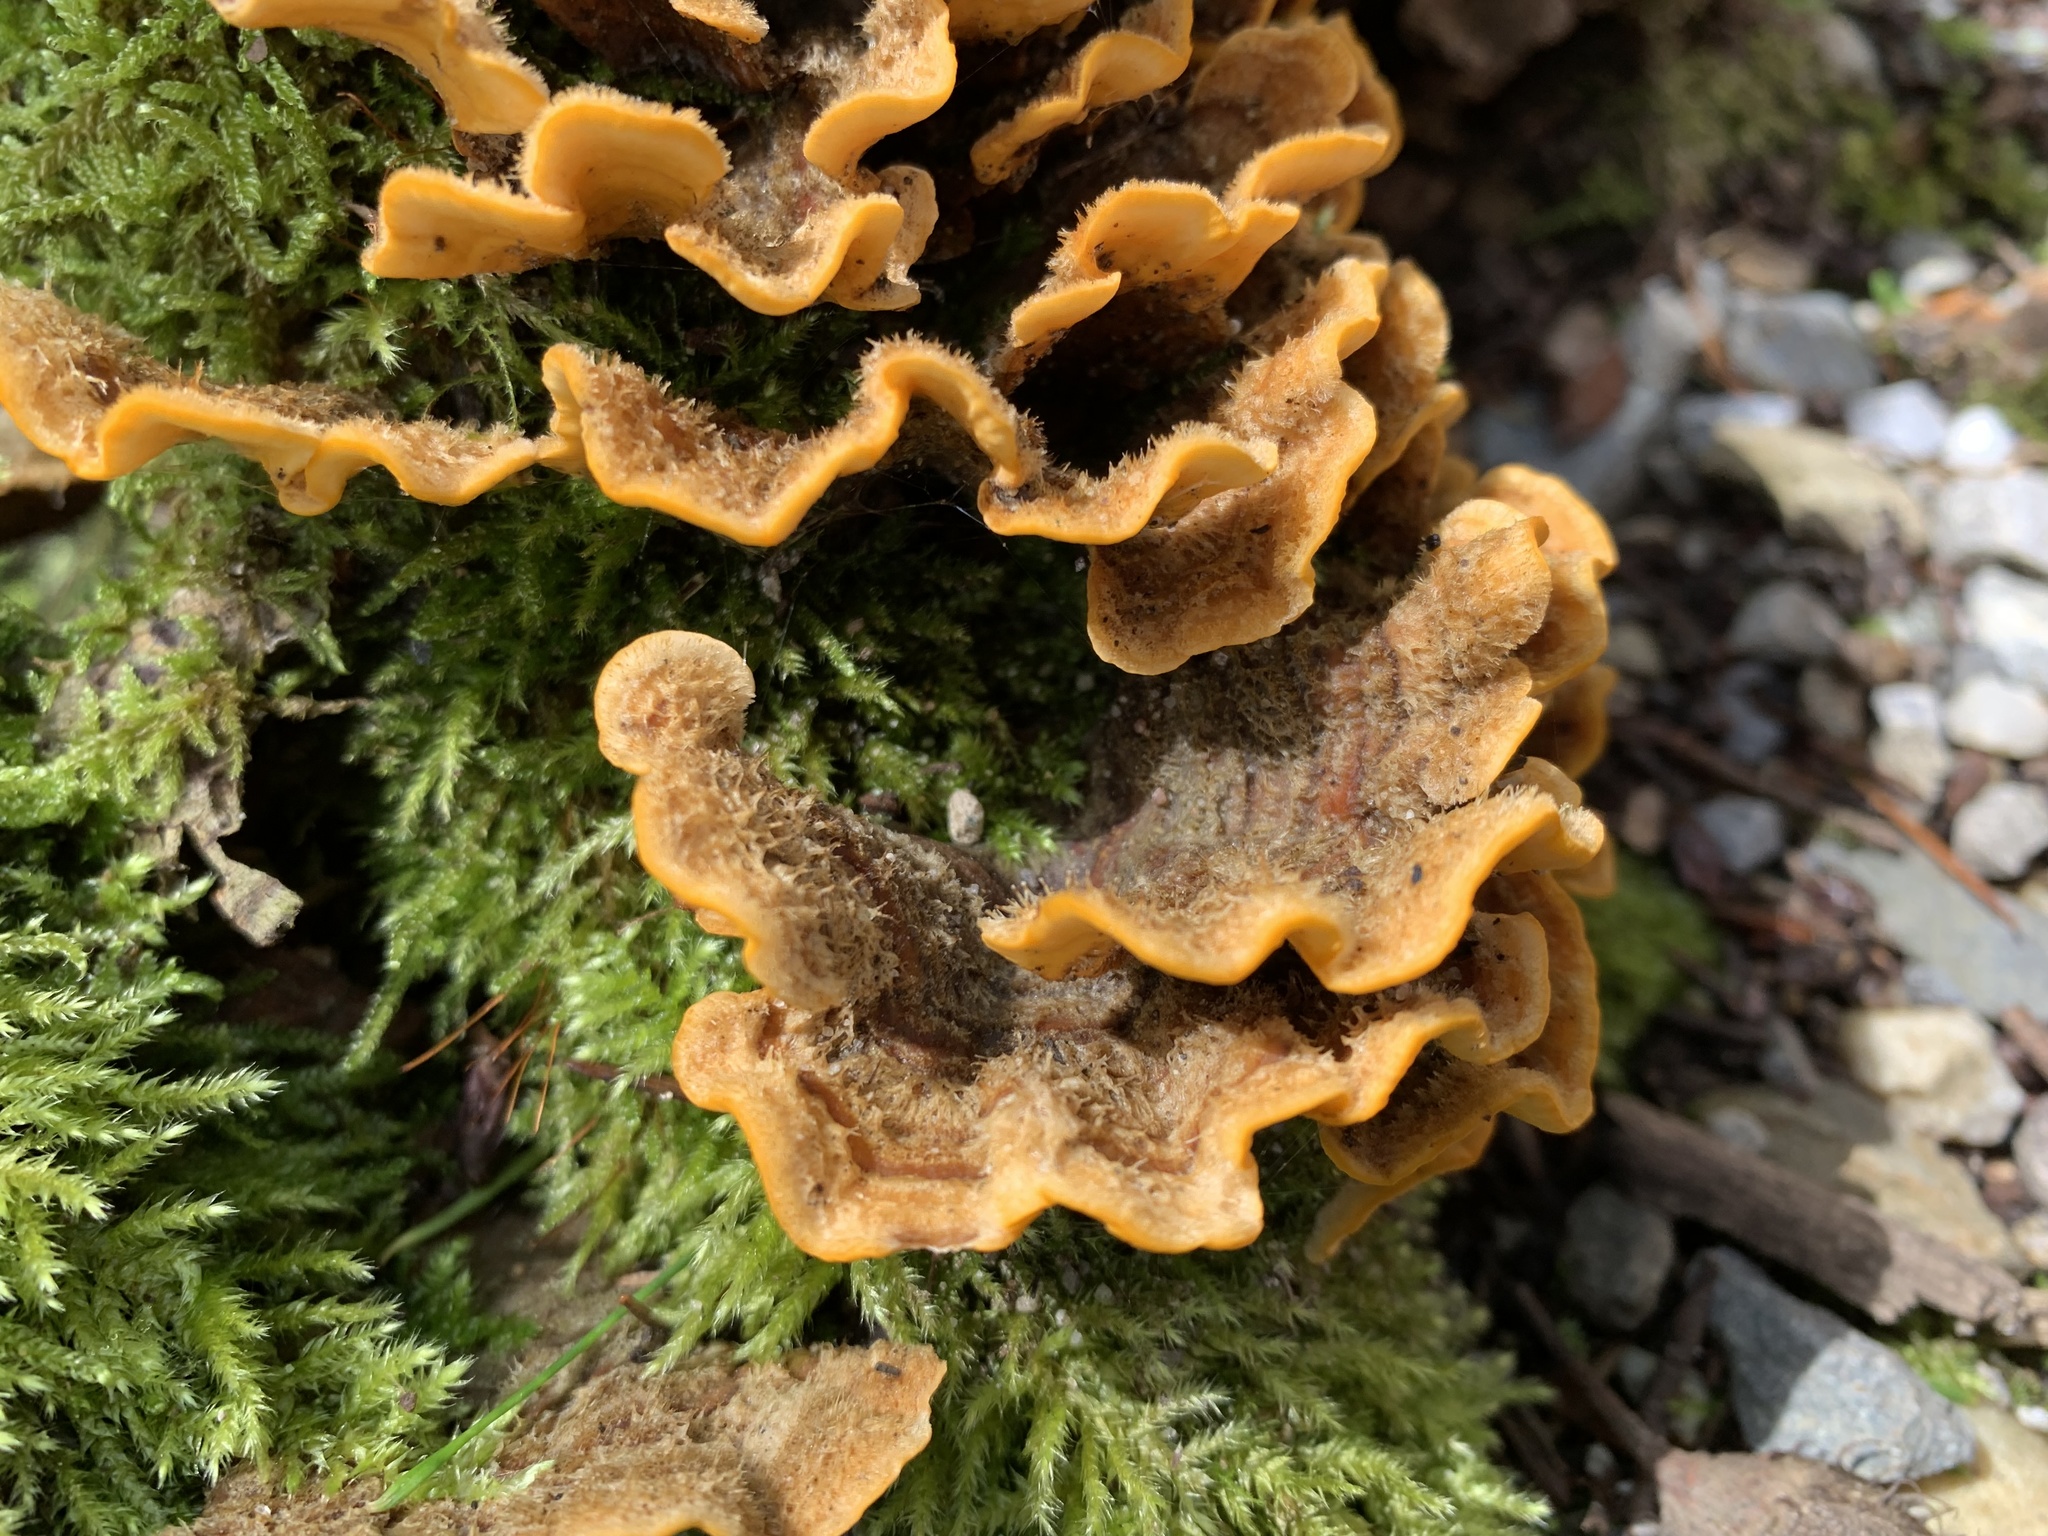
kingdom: Fungi
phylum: Basidiomycota
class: Agaricomycetes
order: Russulales
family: Stereaceae
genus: Stereum
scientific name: Stereum hirsutum
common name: Hairy curtain crust
